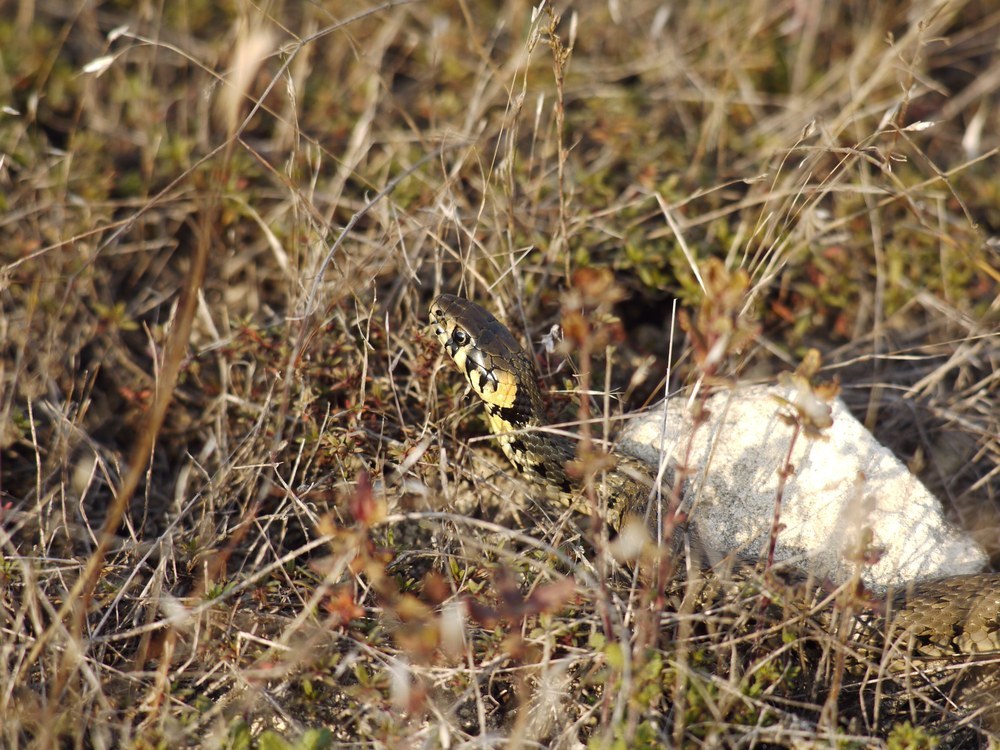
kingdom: Animalia
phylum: Chordata
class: Squamata
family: Colubridae
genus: Natrix
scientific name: Natrix natrix
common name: Grass snake
